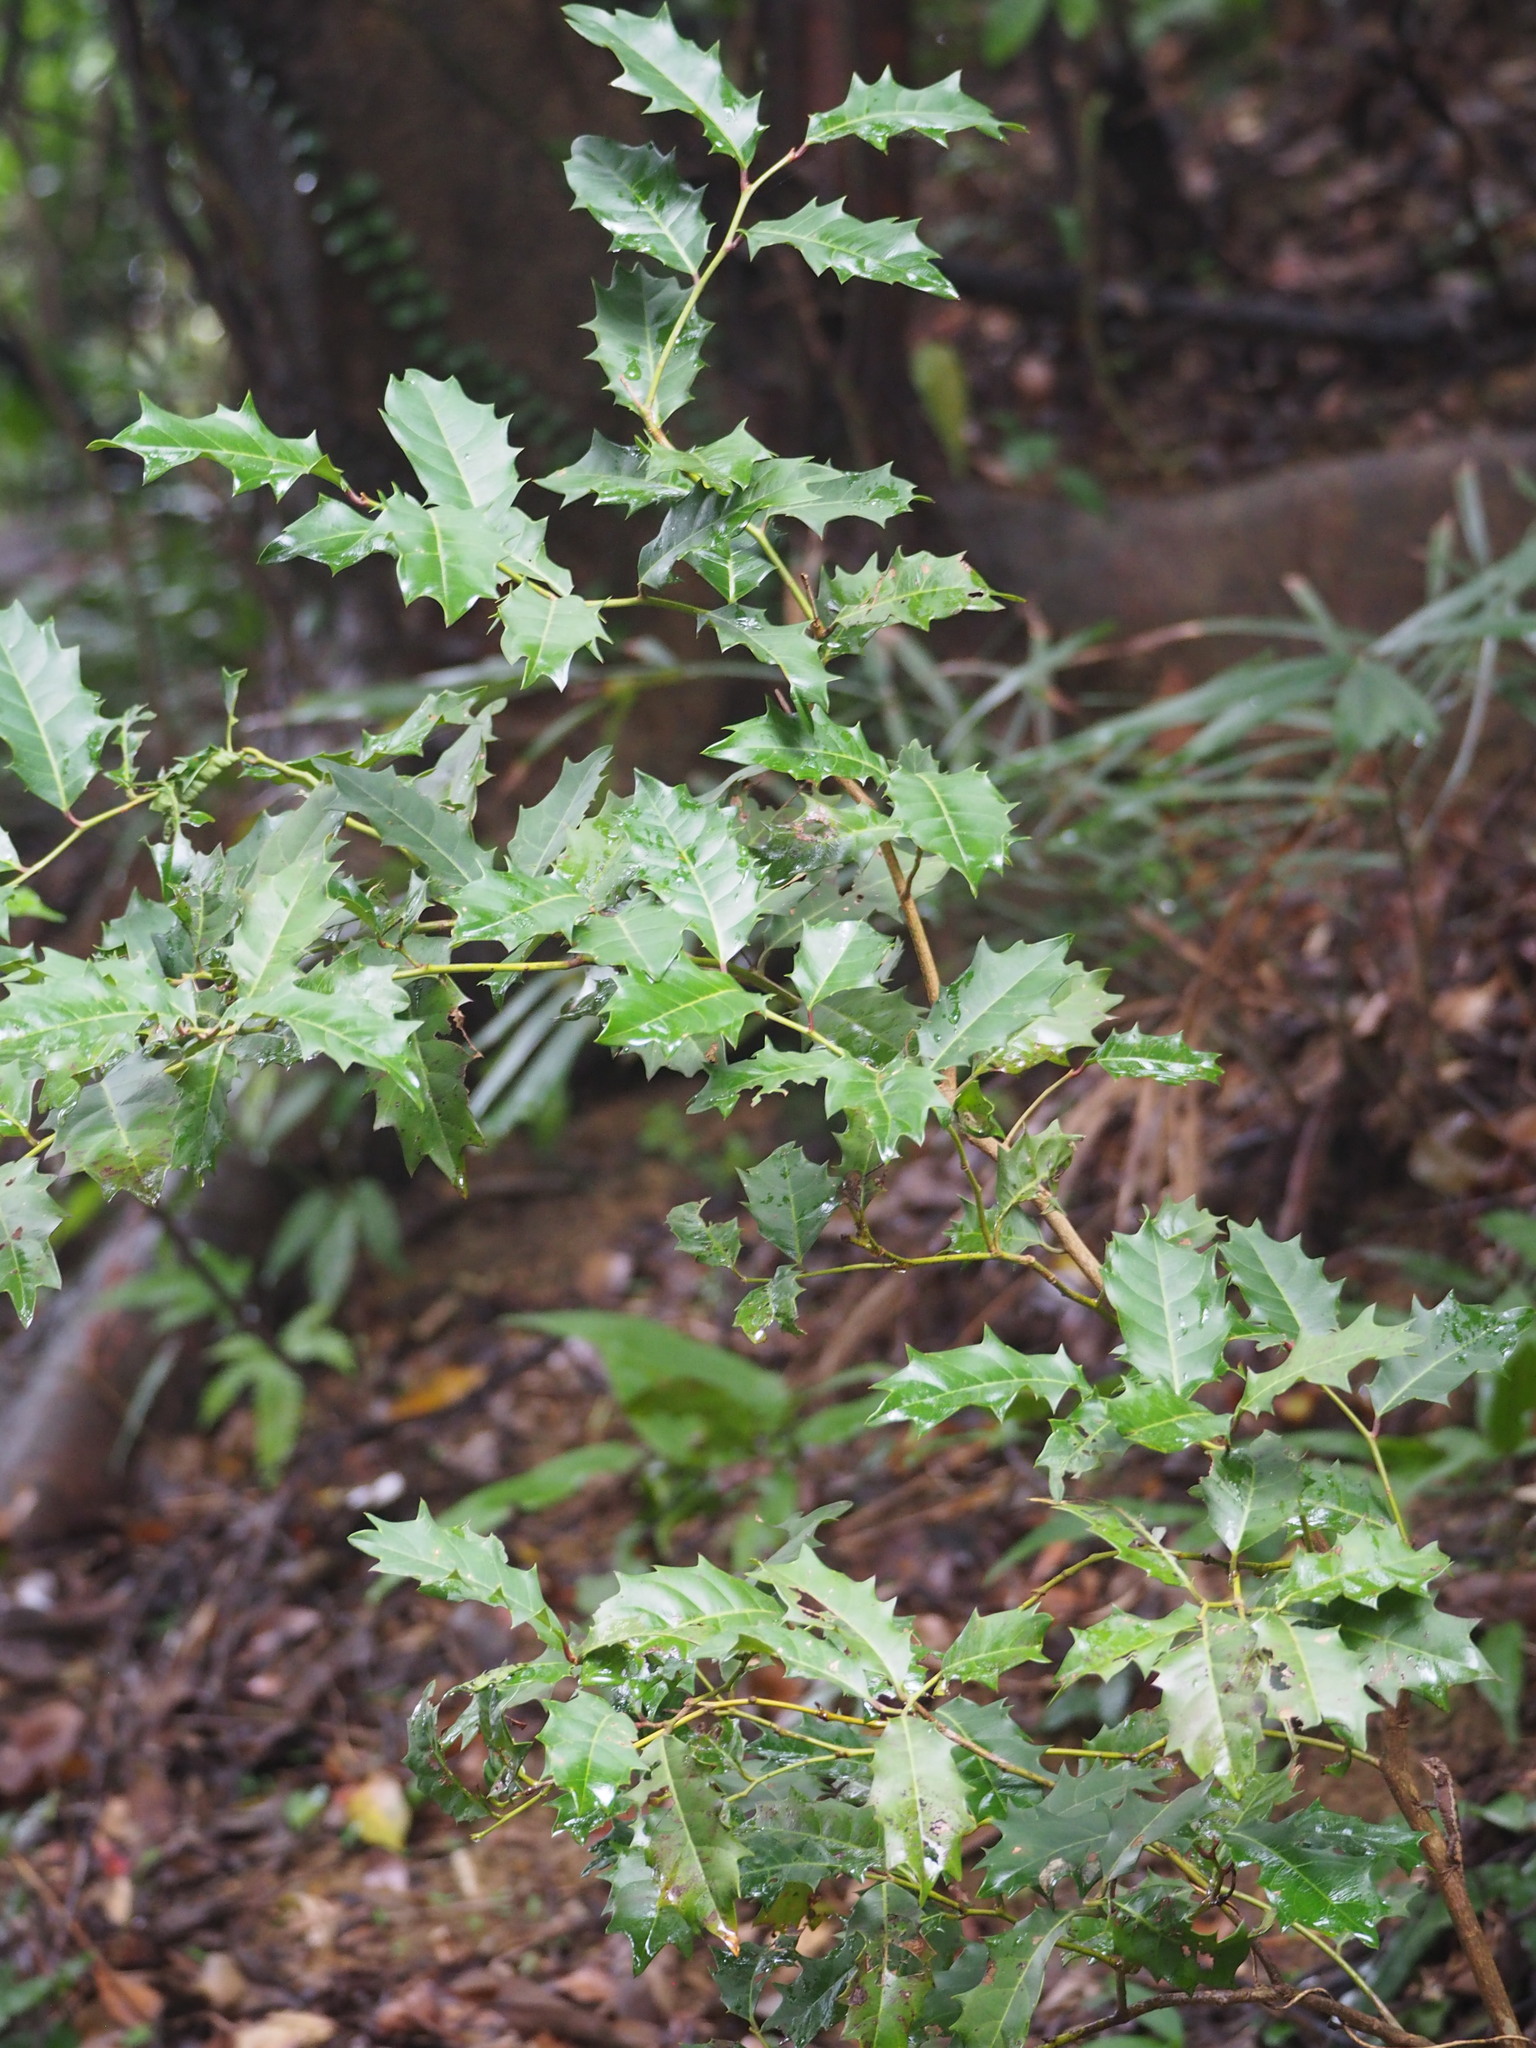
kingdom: Plantae
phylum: Tracheophyta
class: Magnoliopsida
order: Saxifragales
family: Iteaceae
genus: Itea
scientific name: Itea oldhamii
